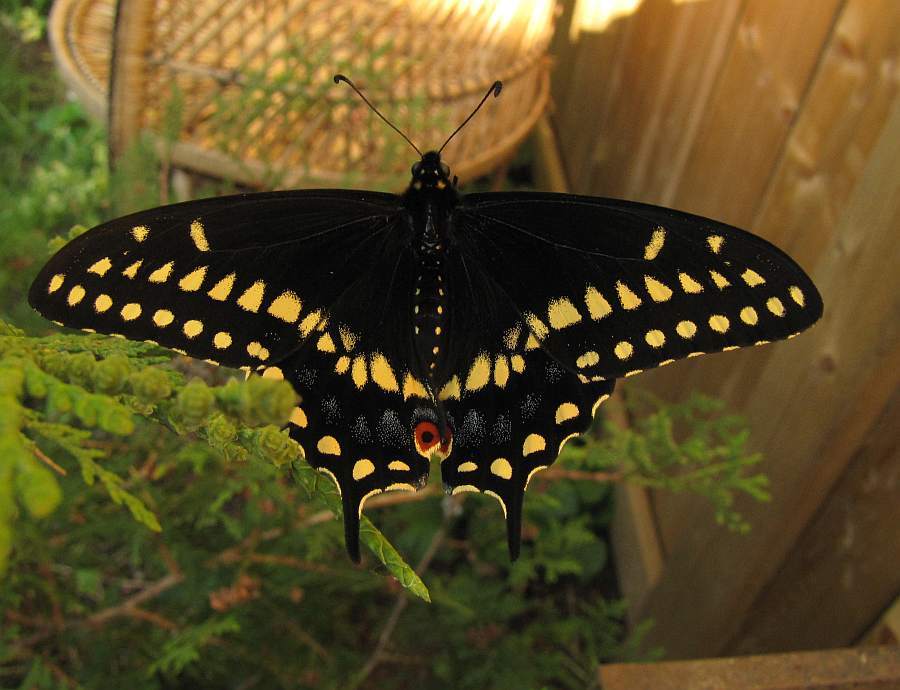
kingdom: Animalia
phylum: Arthropoda
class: Insecta
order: Lepidoptera
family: Papilionidae
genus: Papilio
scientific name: Papilio polyxenes
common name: Black swallowtail
